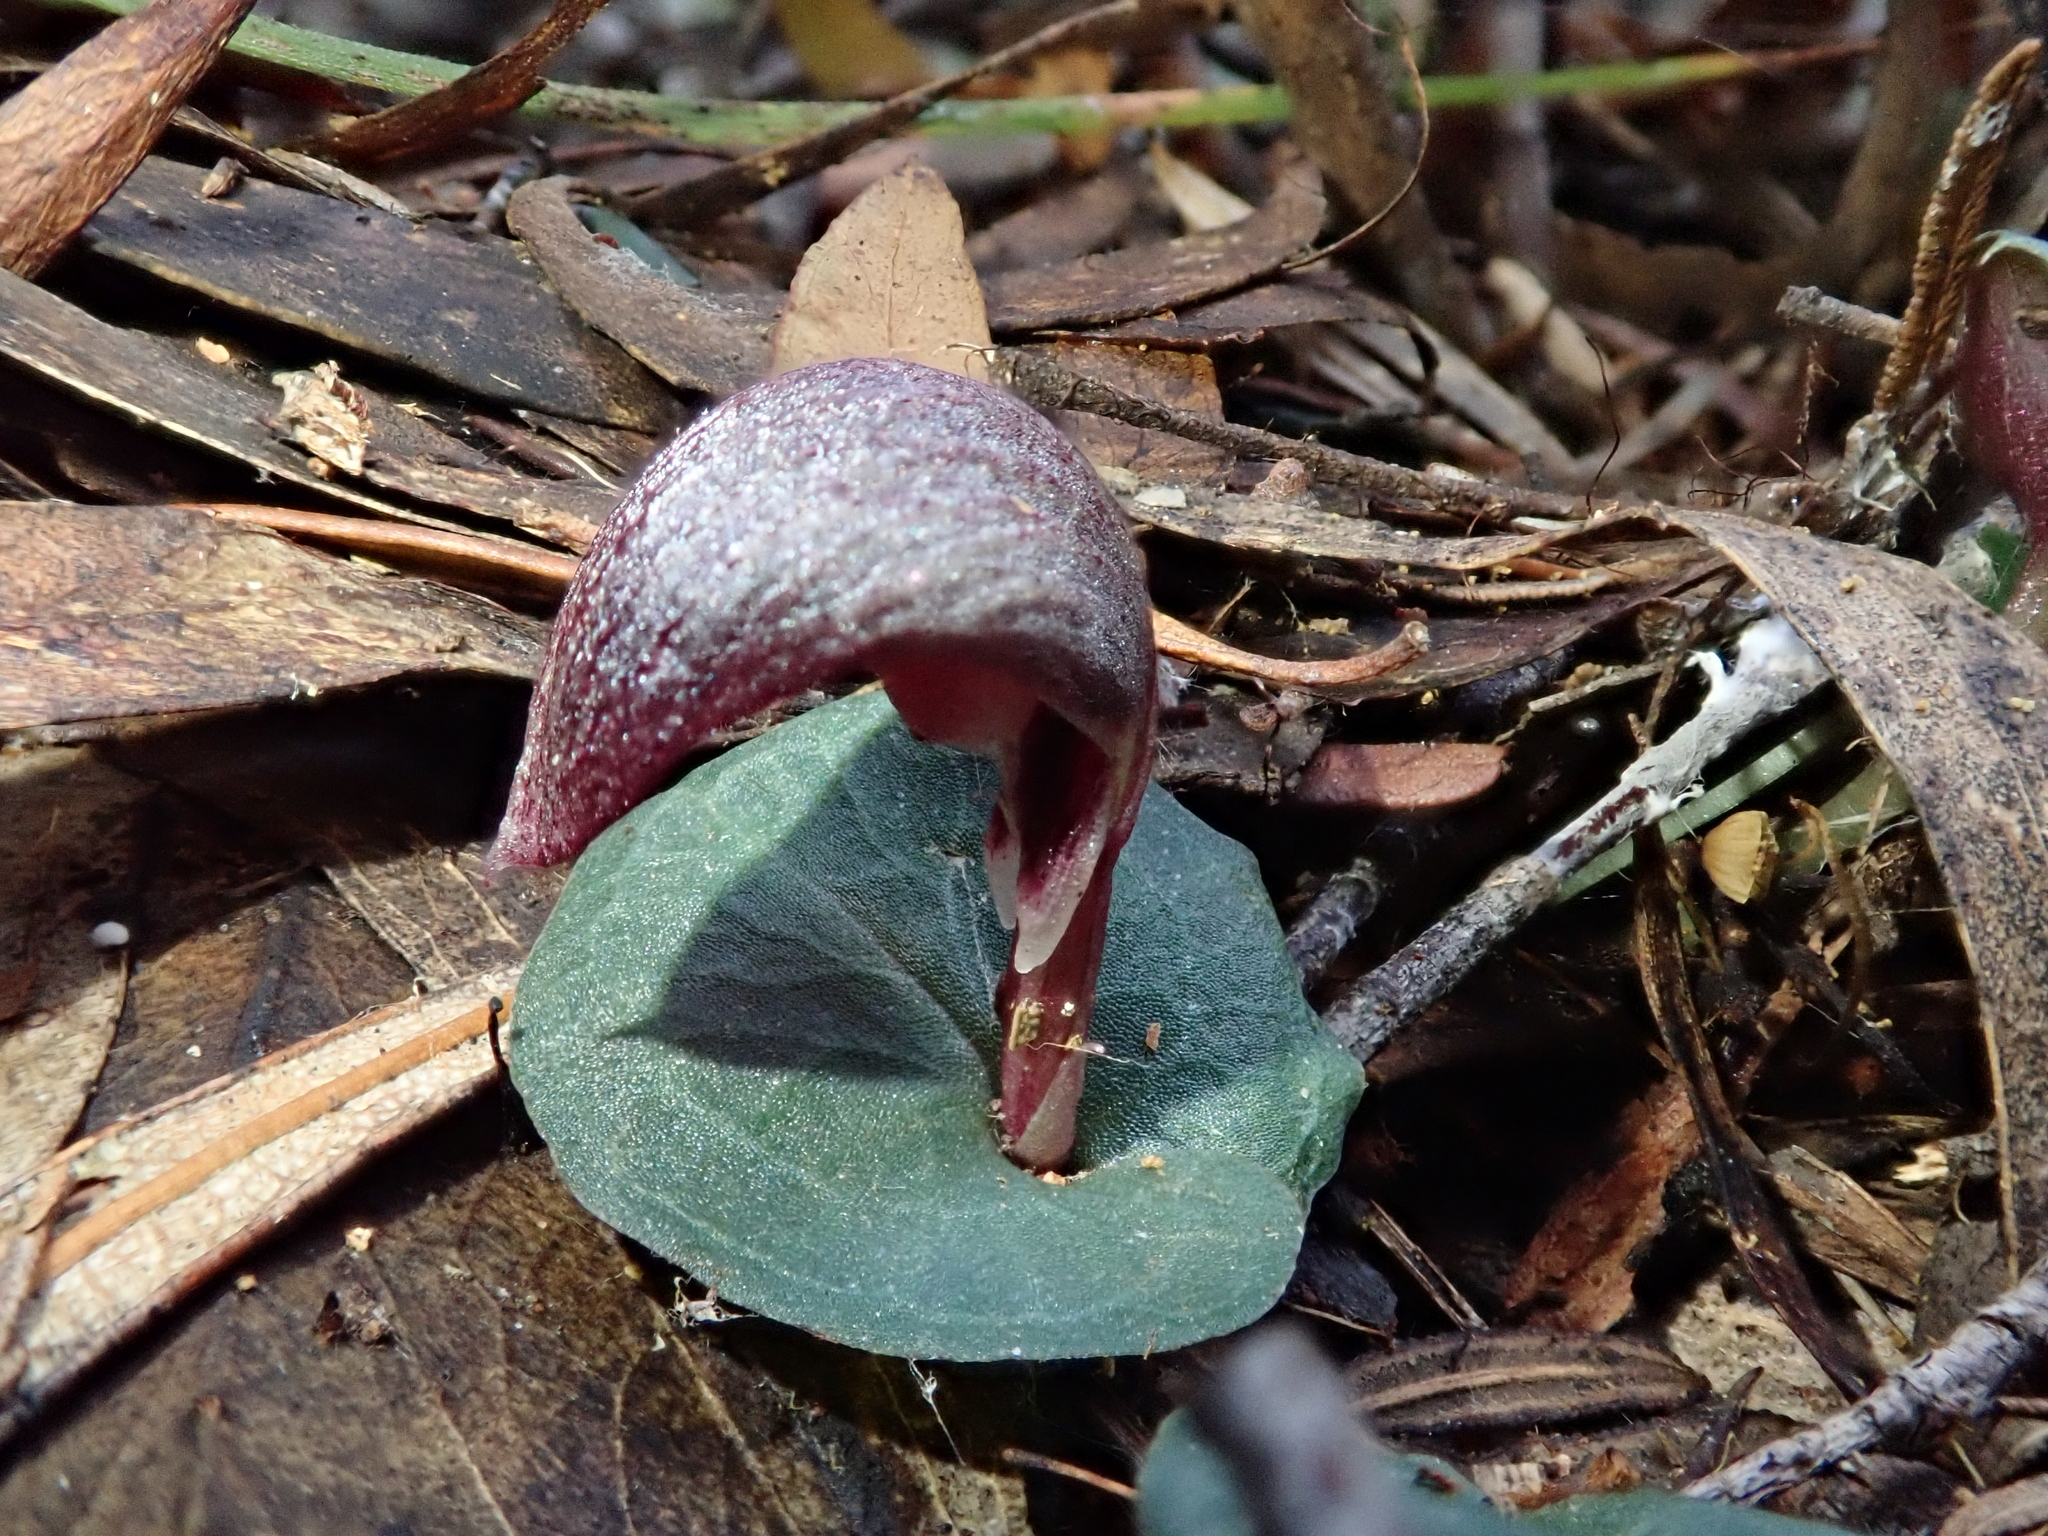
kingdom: Plantae
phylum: Tracheophyta
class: Liliopsida
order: Asparagales
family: Orchidaceae
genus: Corybas
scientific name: Corybas aconitiflorus
